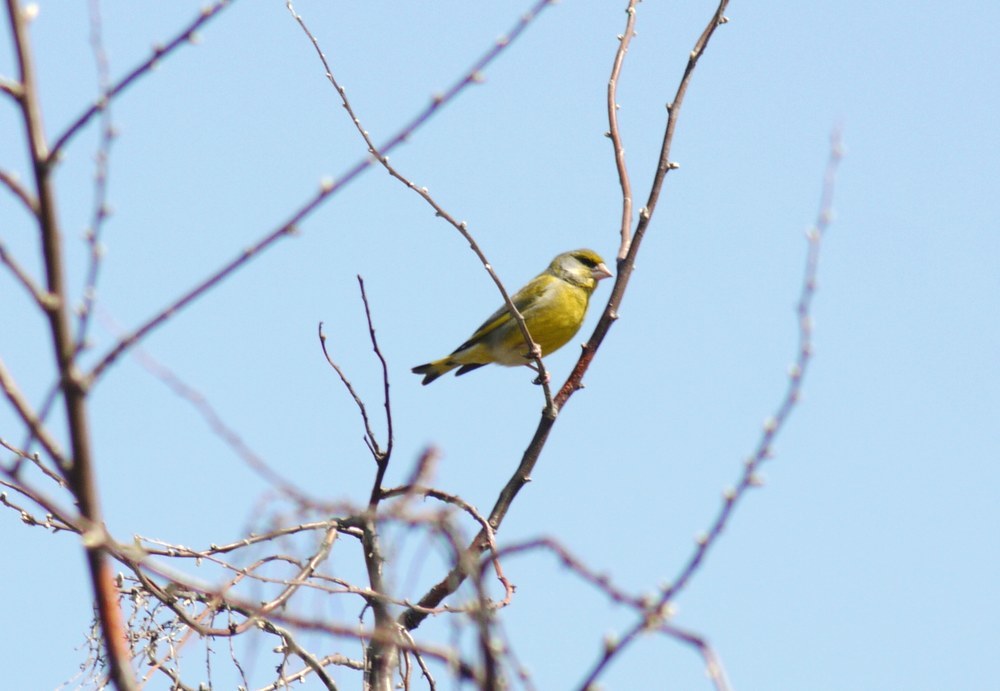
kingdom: Plantae
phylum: Tracheophyta
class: Liliopsida
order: Poales
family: Poaceae
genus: Chloris
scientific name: Chloris chloris
